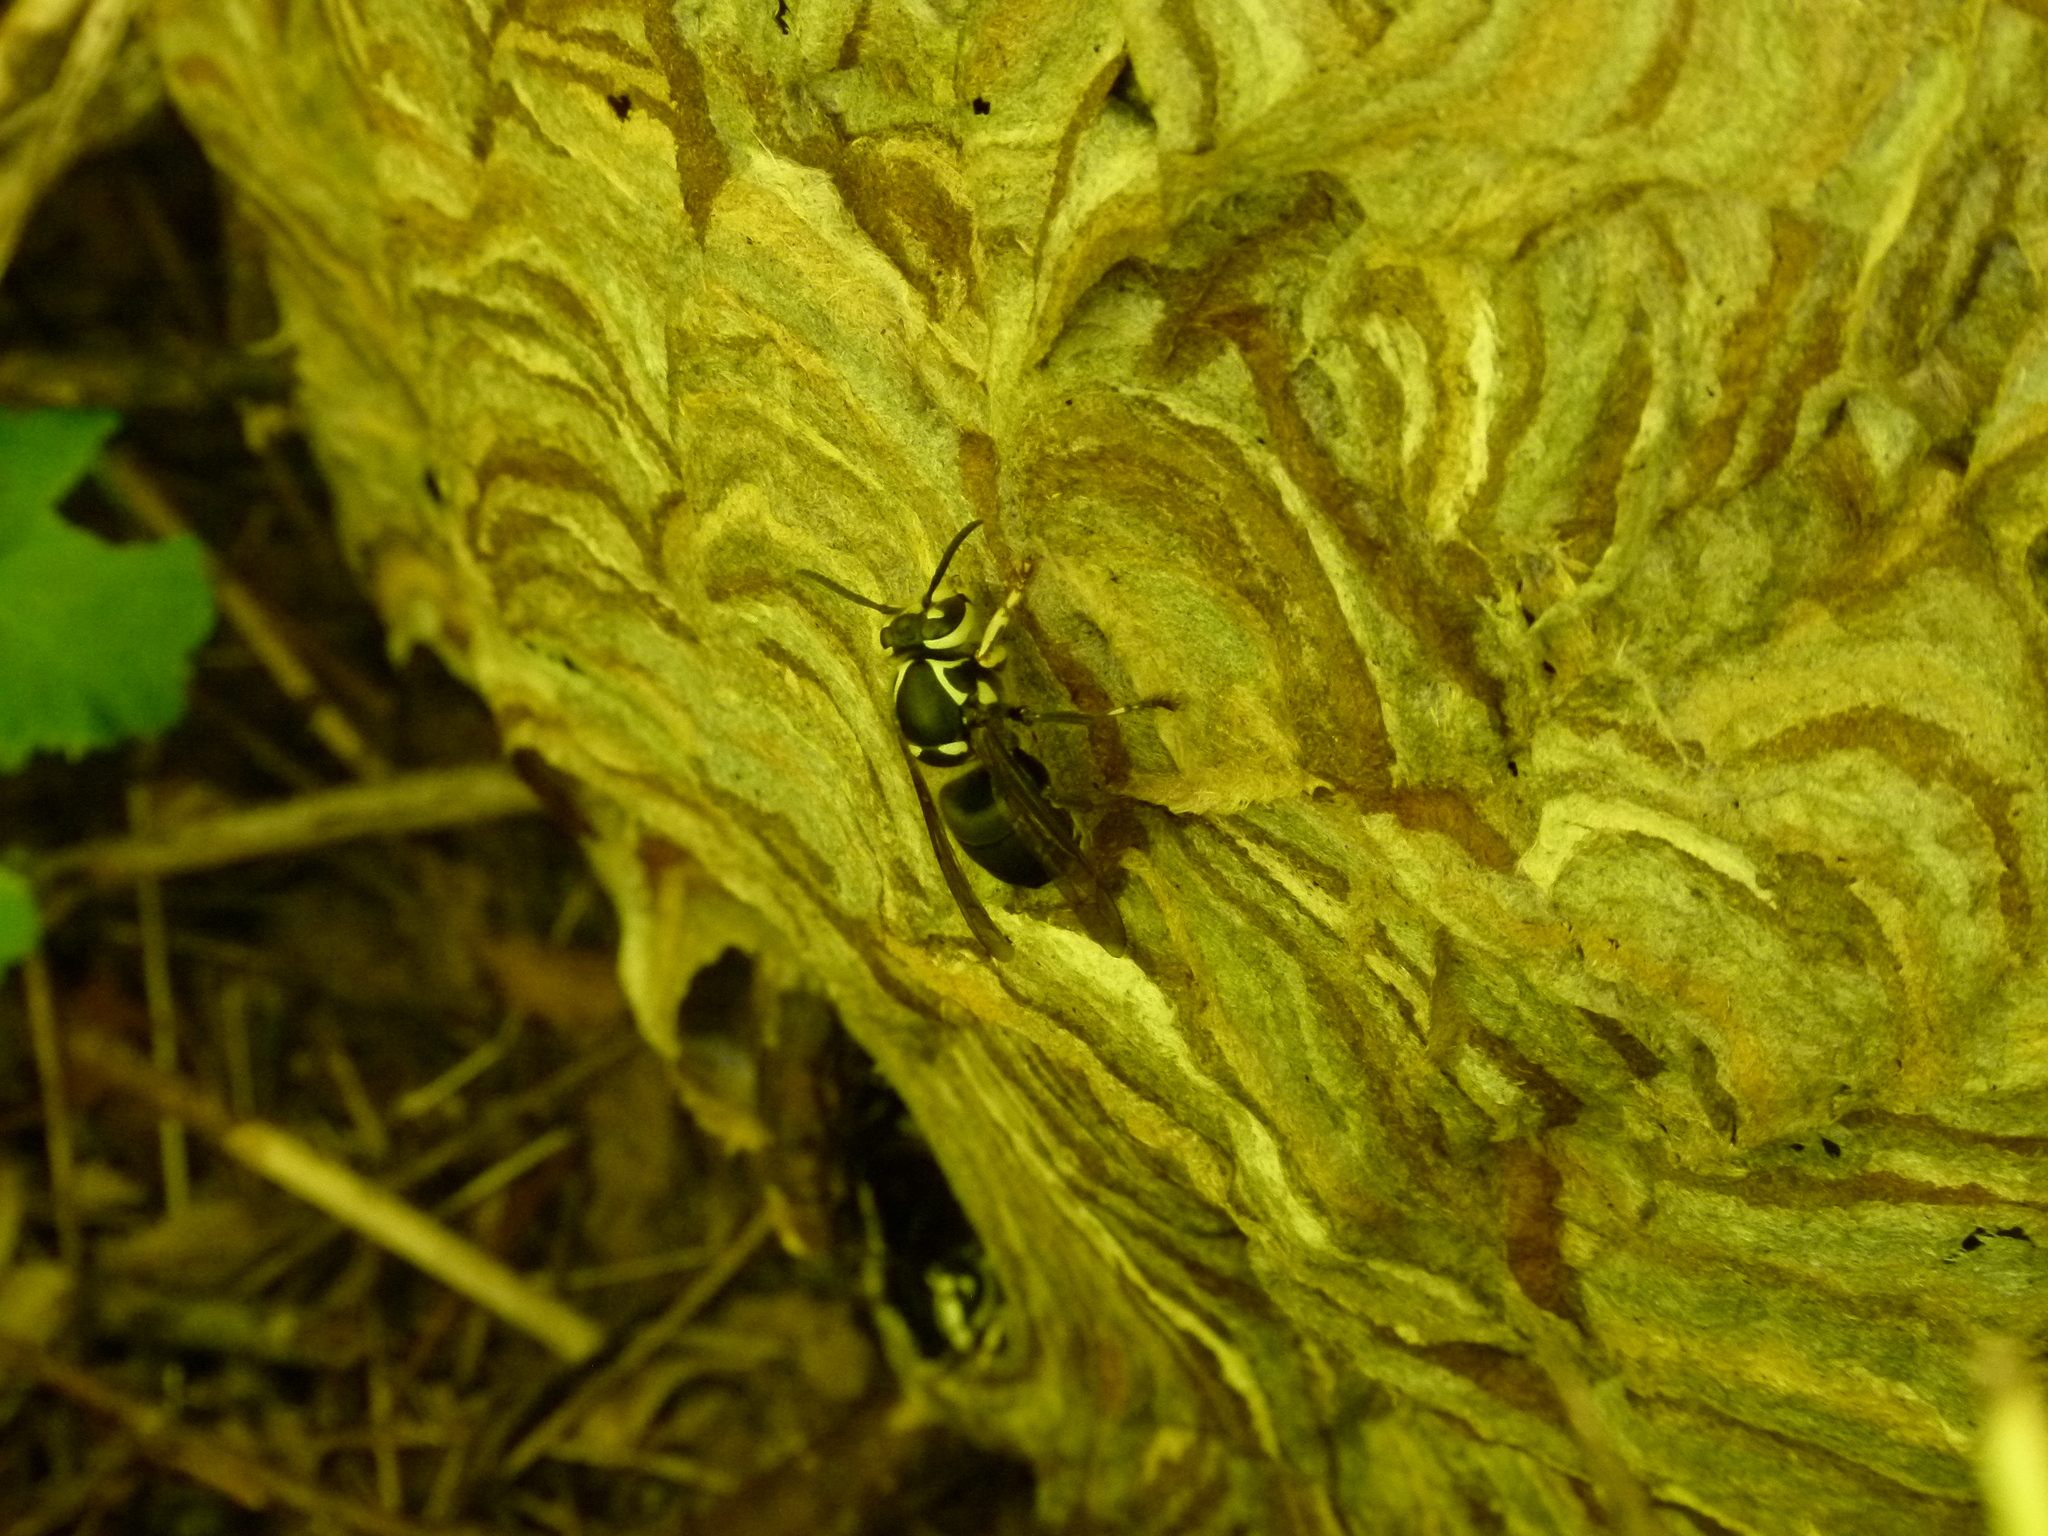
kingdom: Animalia
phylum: Arthropoda
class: Insecta
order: Hymenoptera
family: Vespidae
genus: Dolichovespula
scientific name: Dolichovespula maculata
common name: Bald-faced hornet
